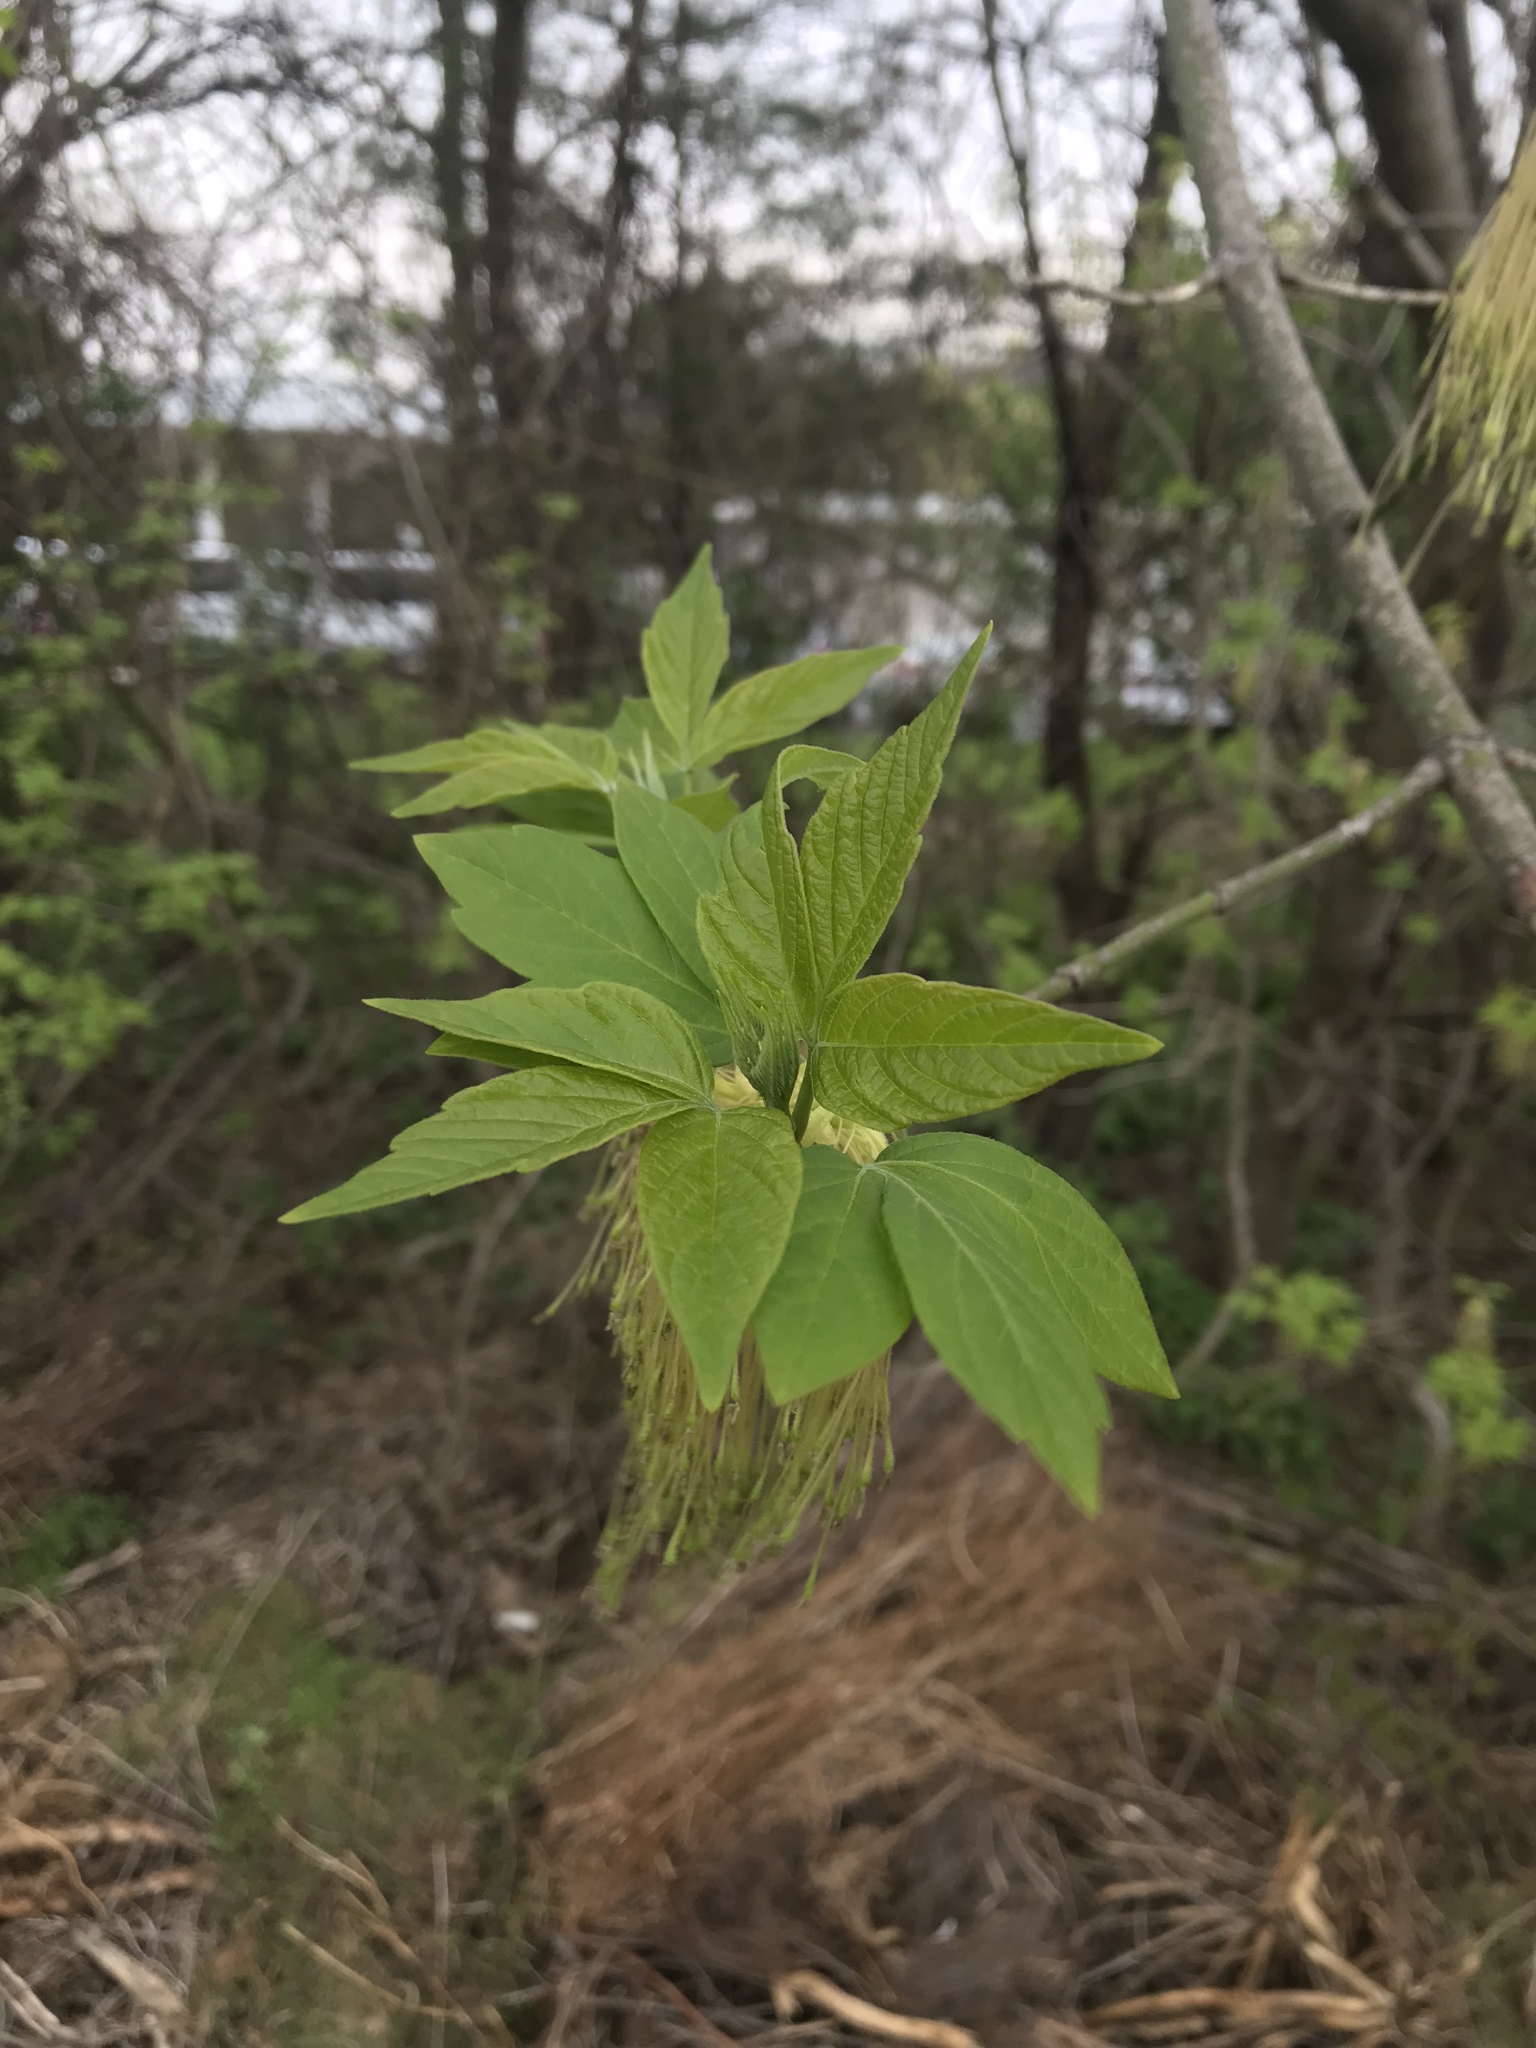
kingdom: Plantae
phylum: Tracheophyta
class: Magnoliopsida
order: Sapindales
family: Sapindaceae
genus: Acer
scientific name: Acer negundo
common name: Ashleaf maple
